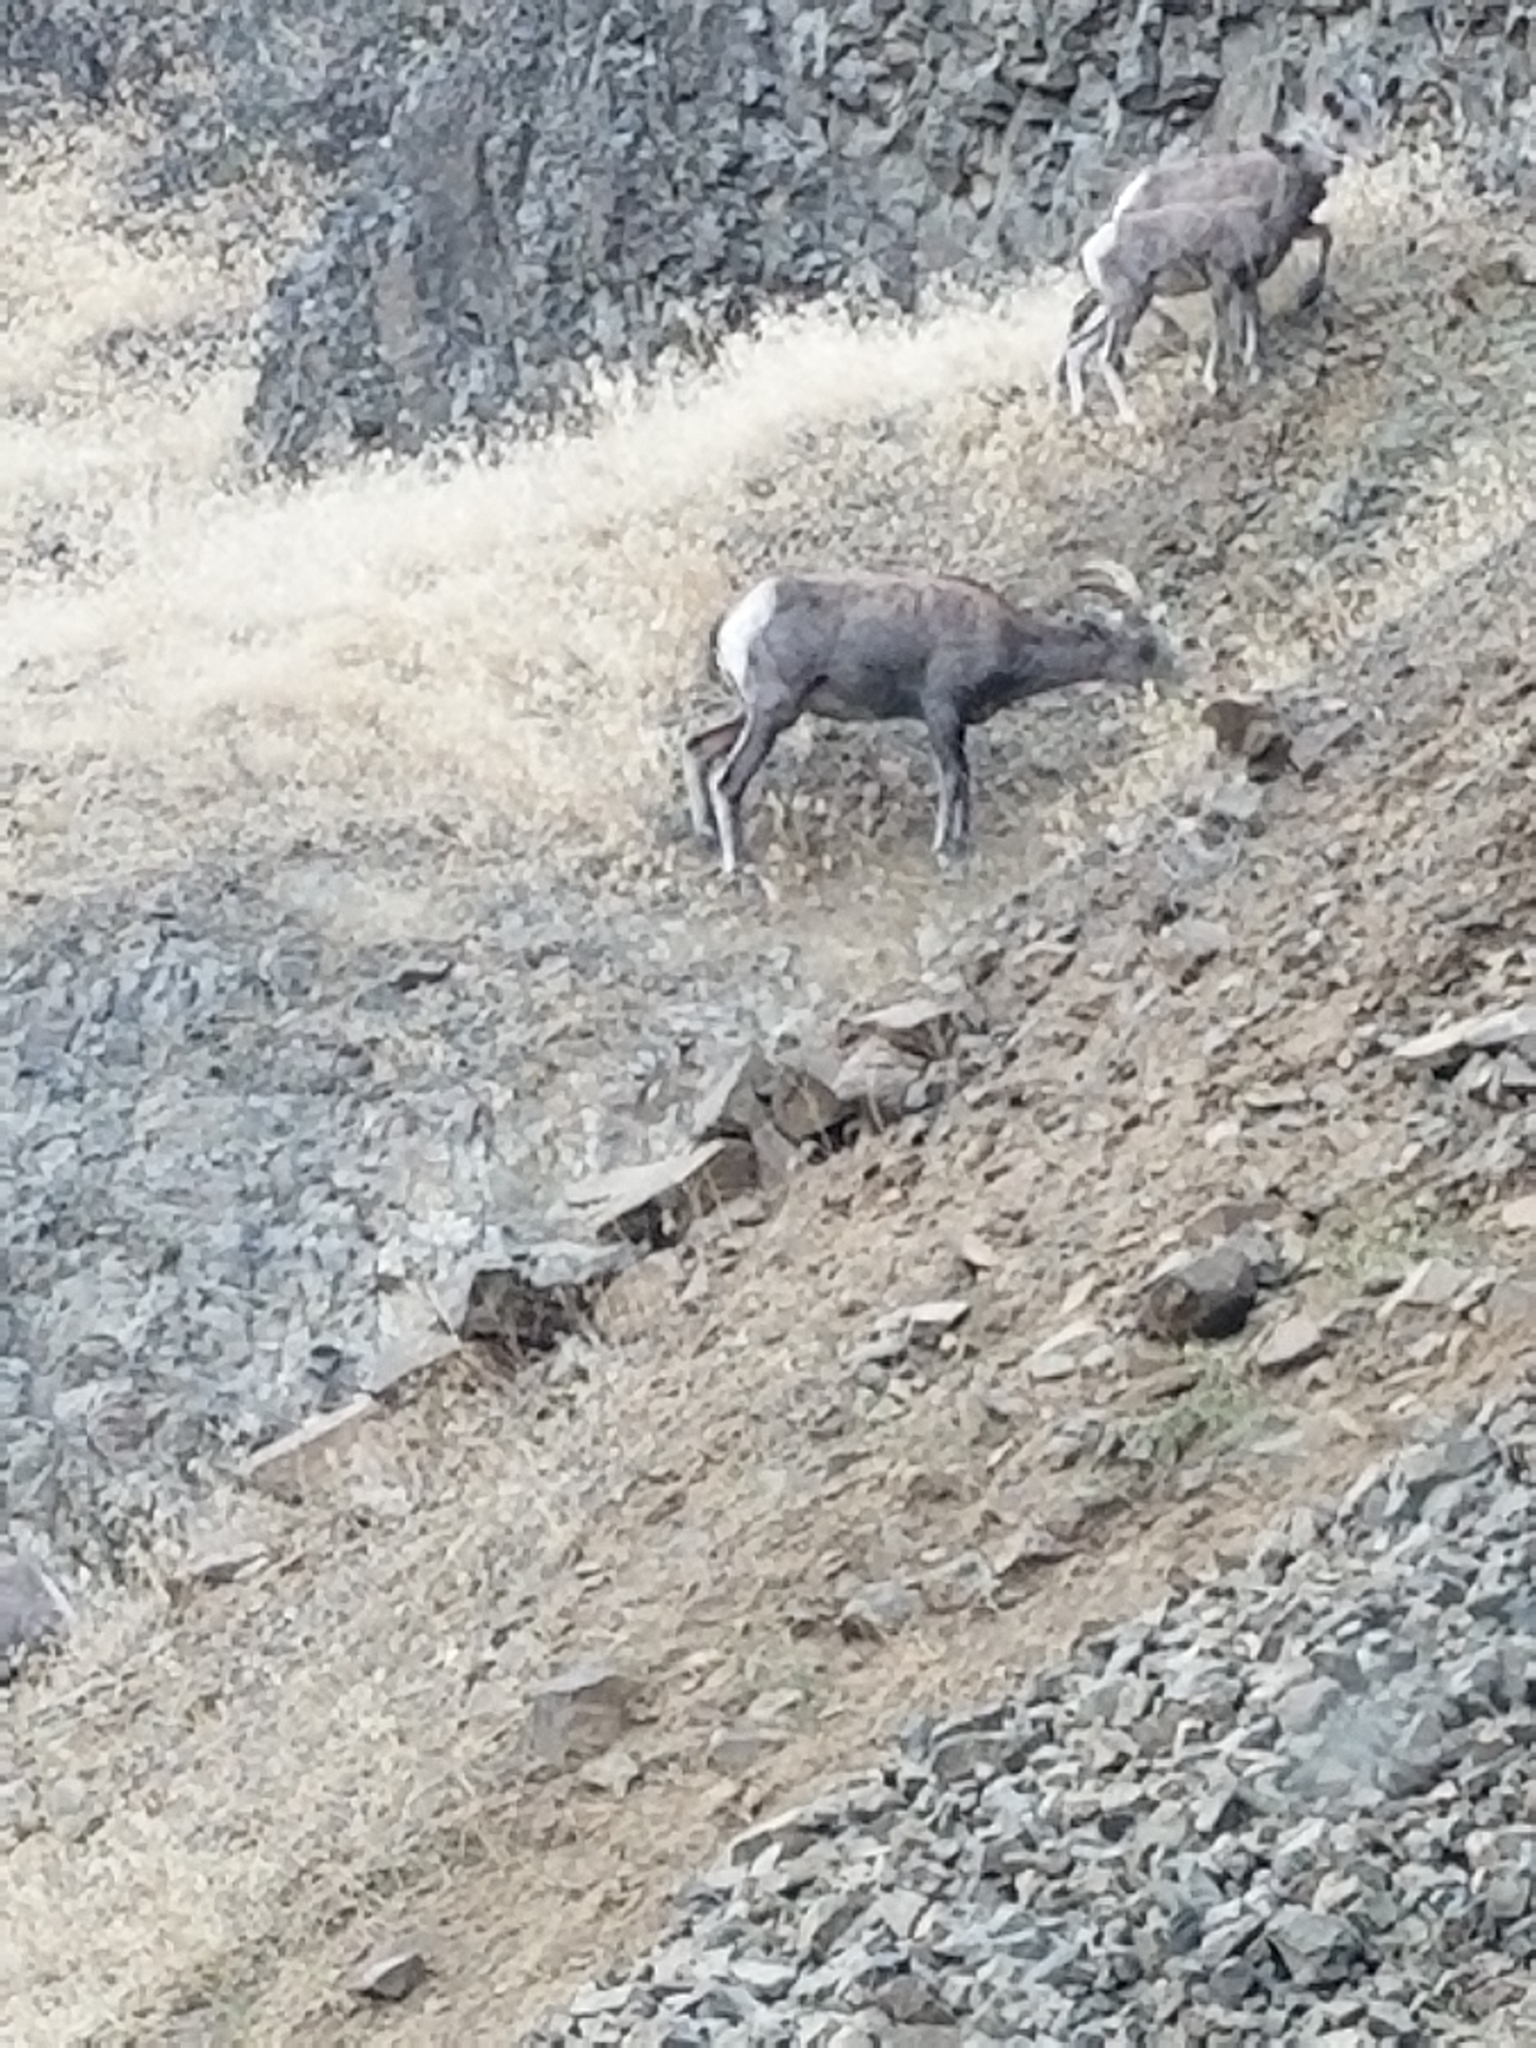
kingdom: Animalia
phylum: Chordata
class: Mammalia
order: Artiodactyla
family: Bovidae
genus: Ovis
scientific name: Ovis canadensis
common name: Bighorn sheep
